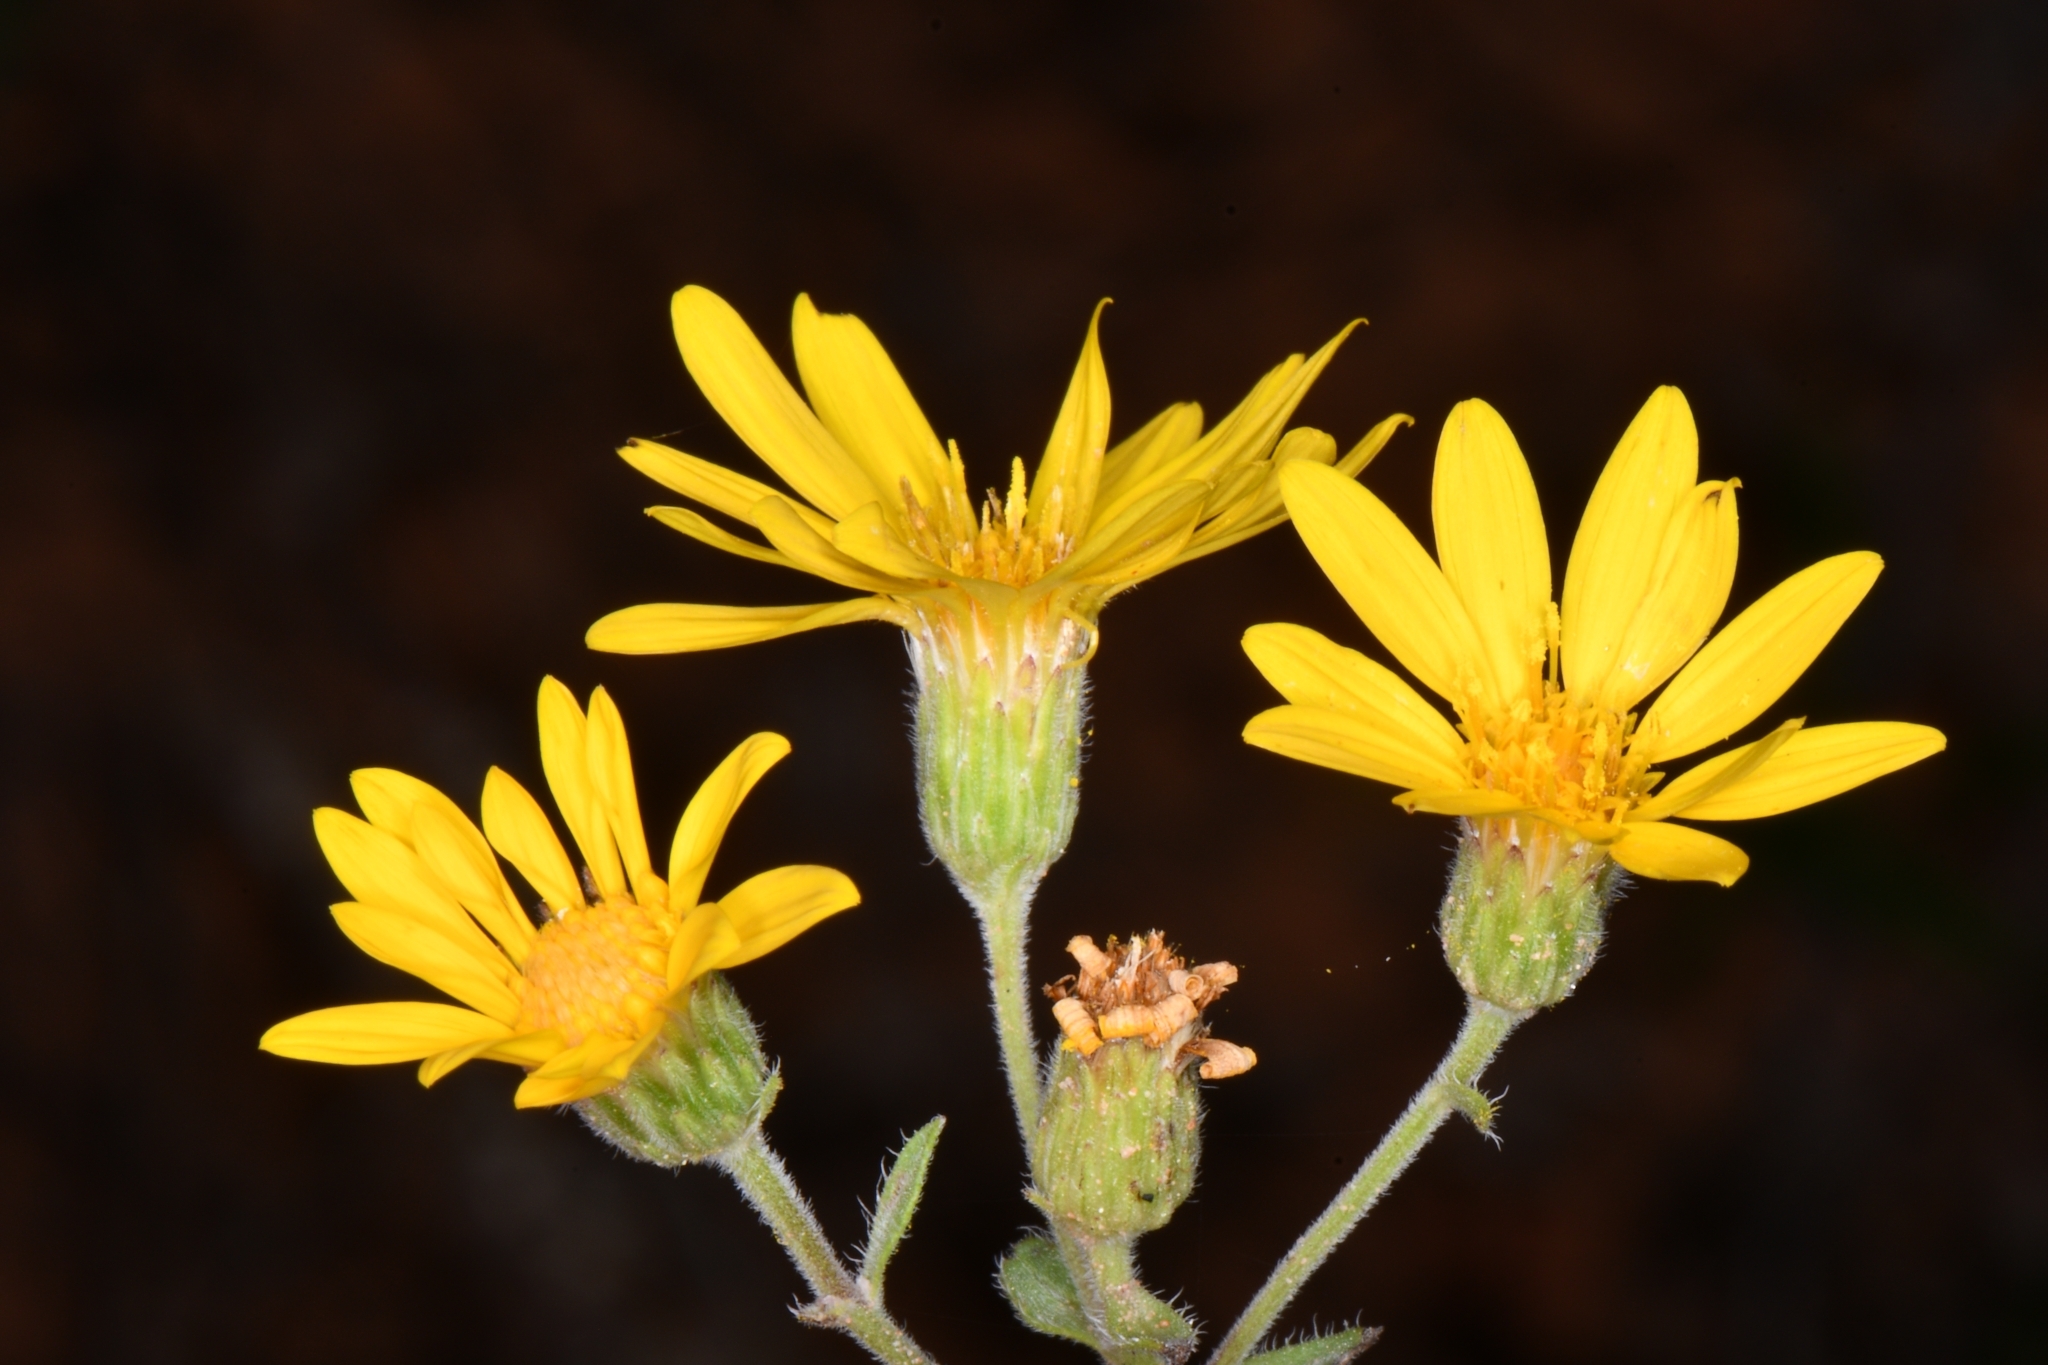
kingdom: Plantae
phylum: Tracheophyta
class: Magnoliopsida
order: Asterales
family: Asteraceae
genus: Heterotheca
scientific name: Heterotheca polothrix
